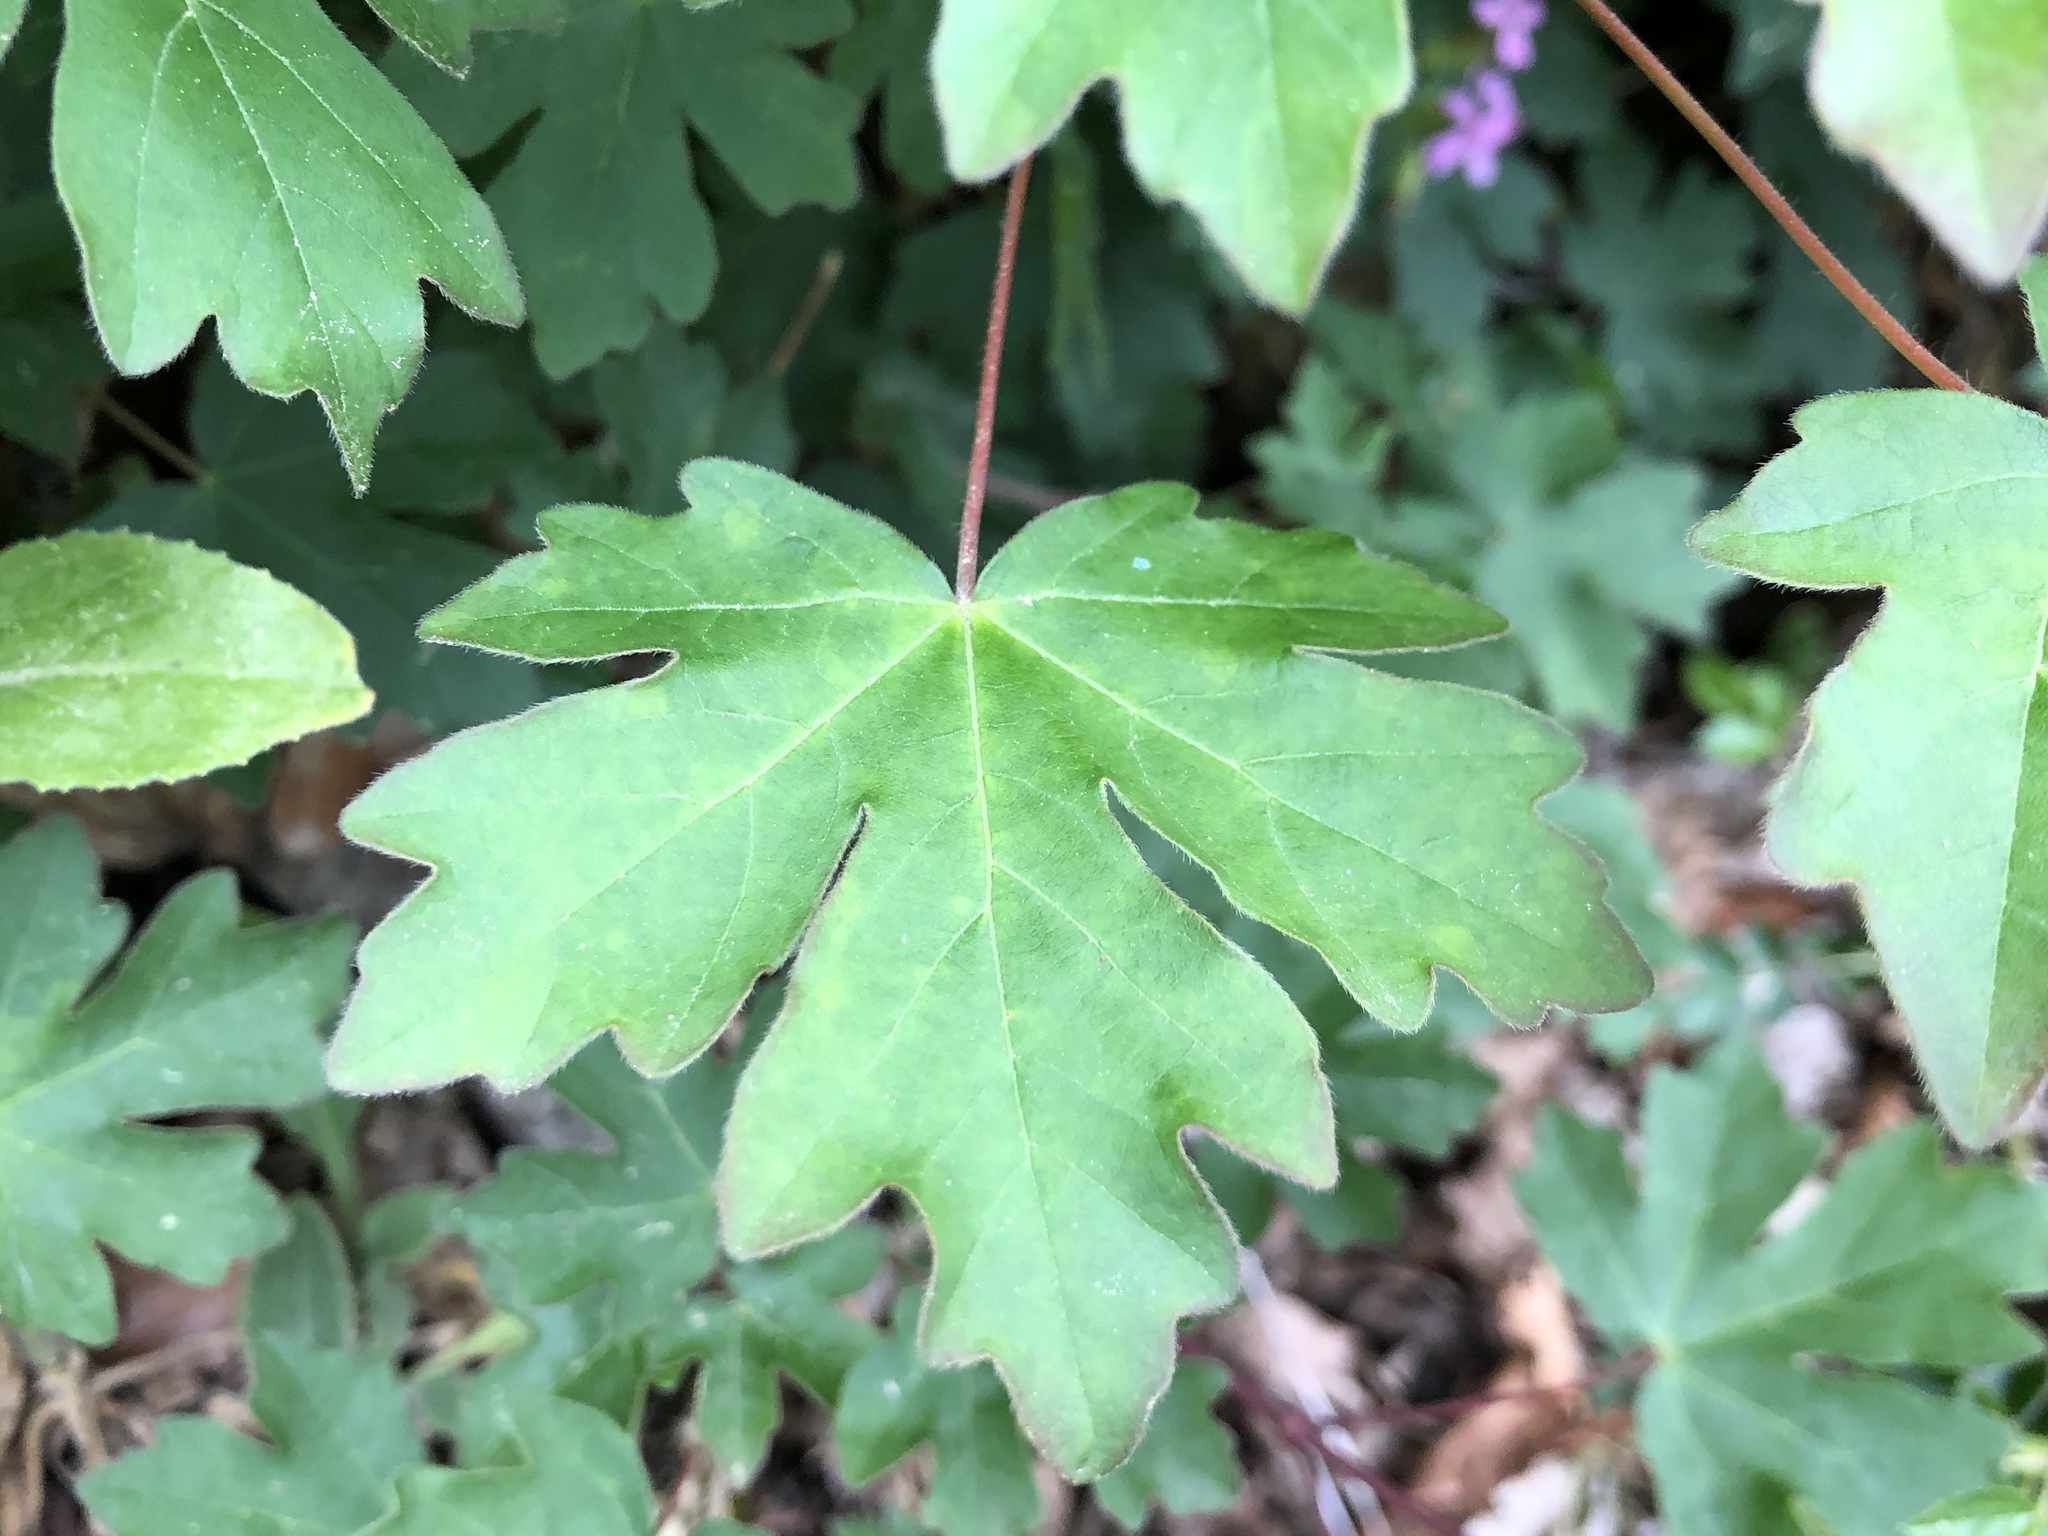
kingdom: Plantae
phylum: Tracheophyta
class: Magnoliopsida
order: Sapindales
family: Sapindaceae
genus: Acer
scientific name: Acer campestre
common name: Field maple
